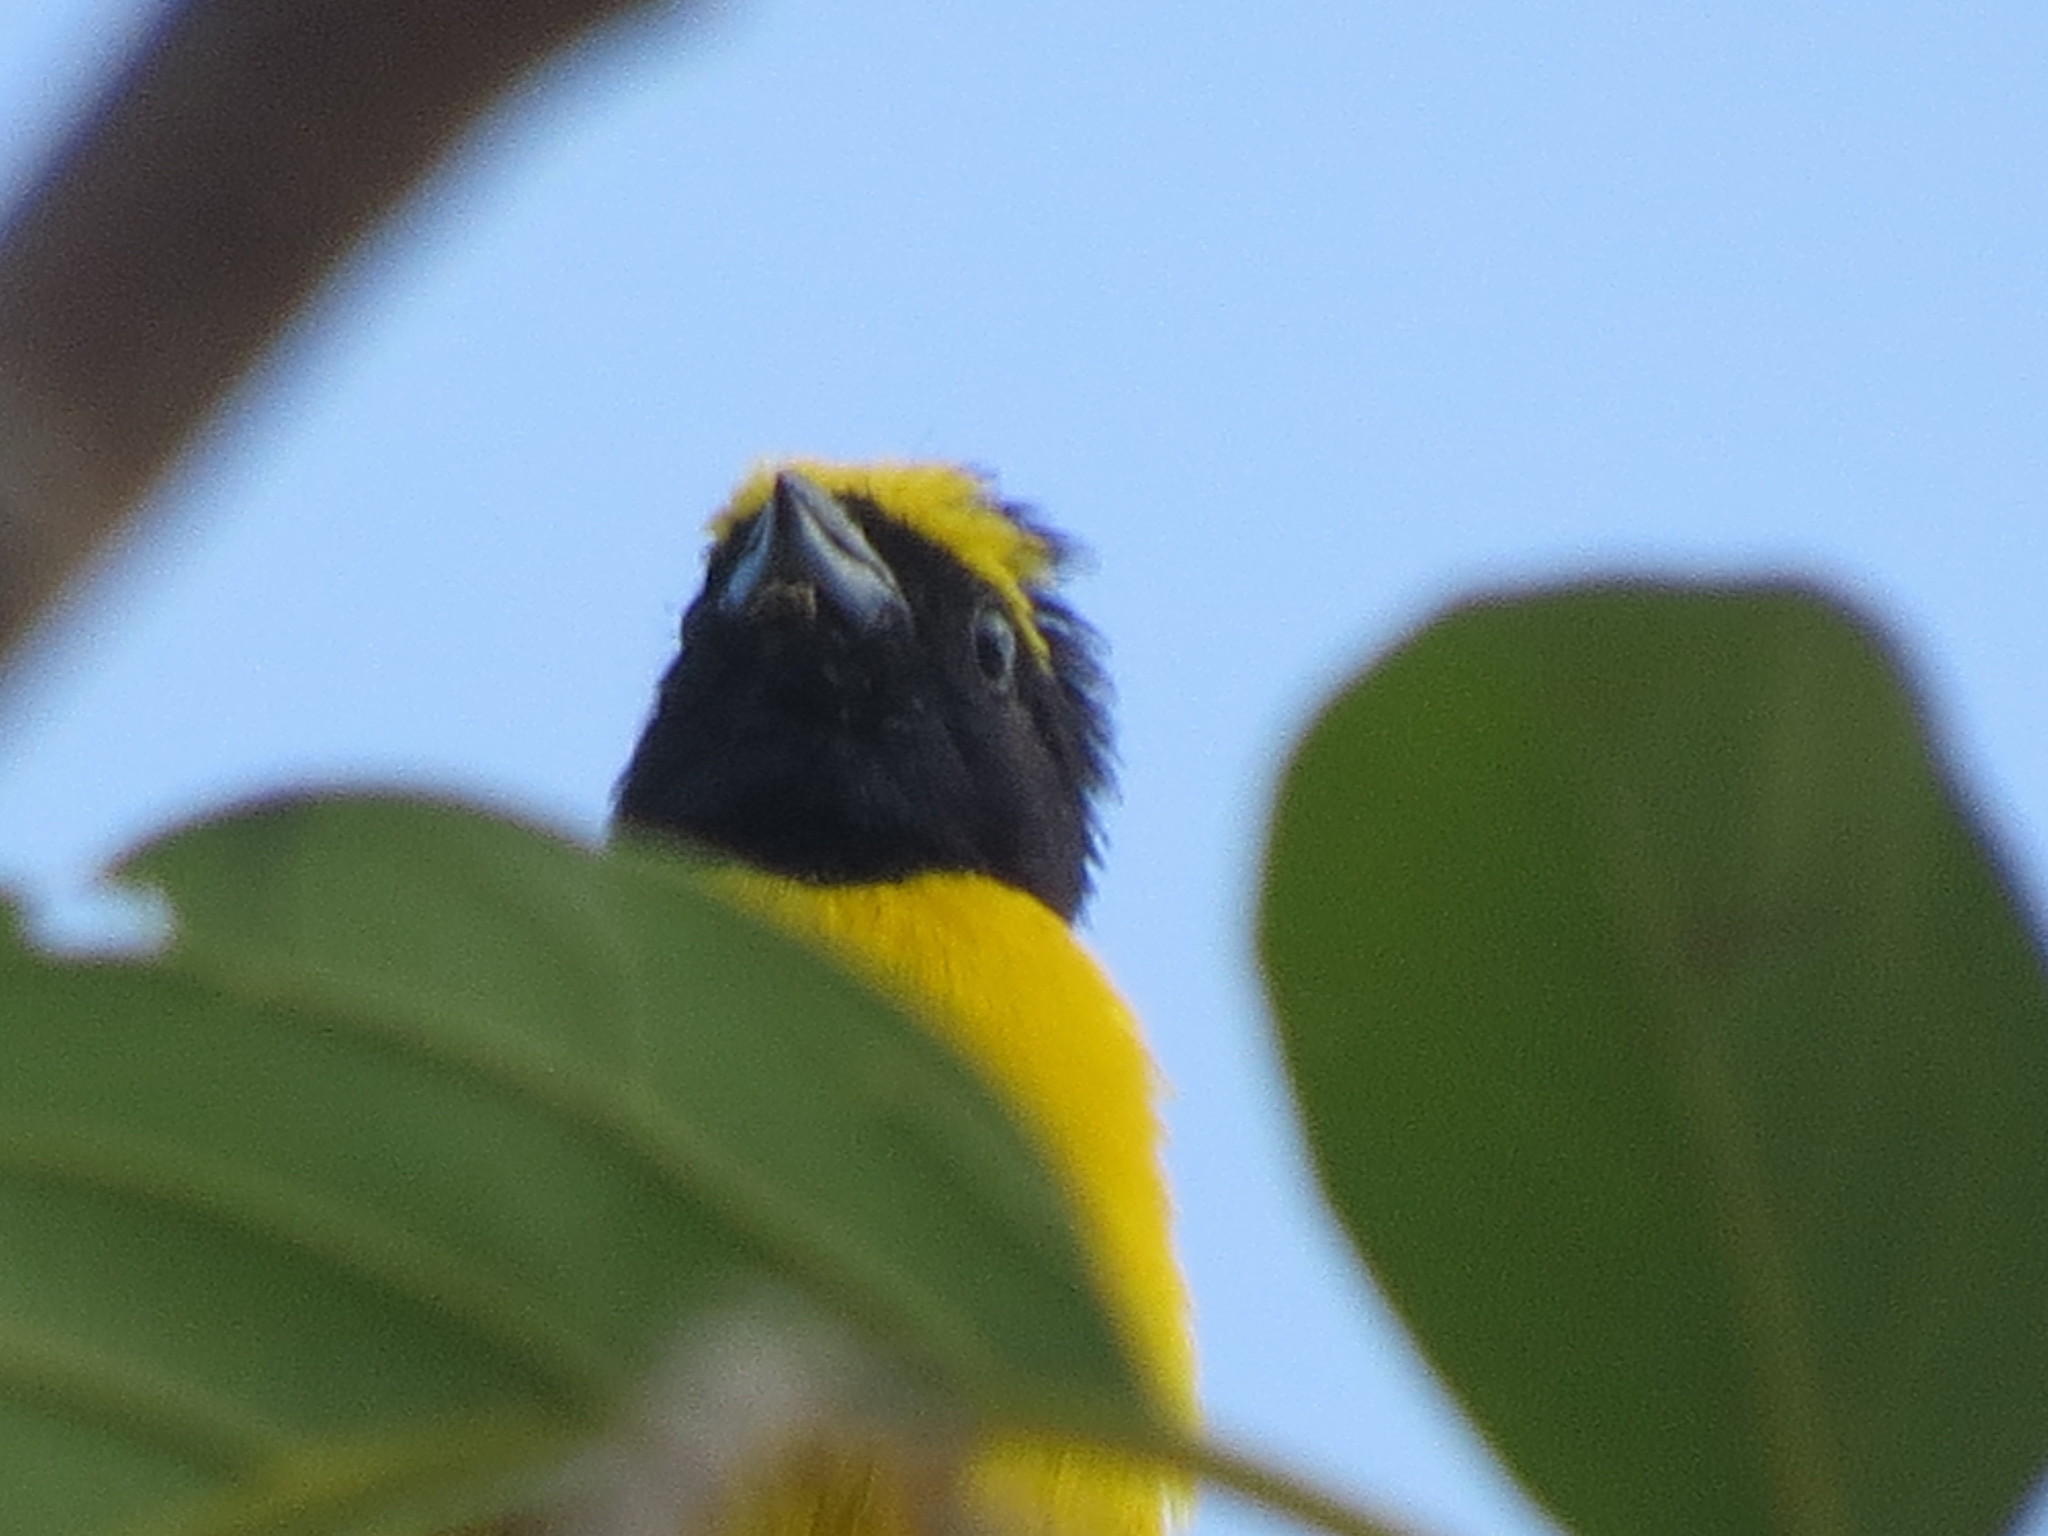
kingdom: Animalia
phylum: Chordata
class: Aves
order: Passeriformes
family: Fringillidae
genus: Euphonia
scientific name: Euphonia affinis
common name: Scrub euphonia
